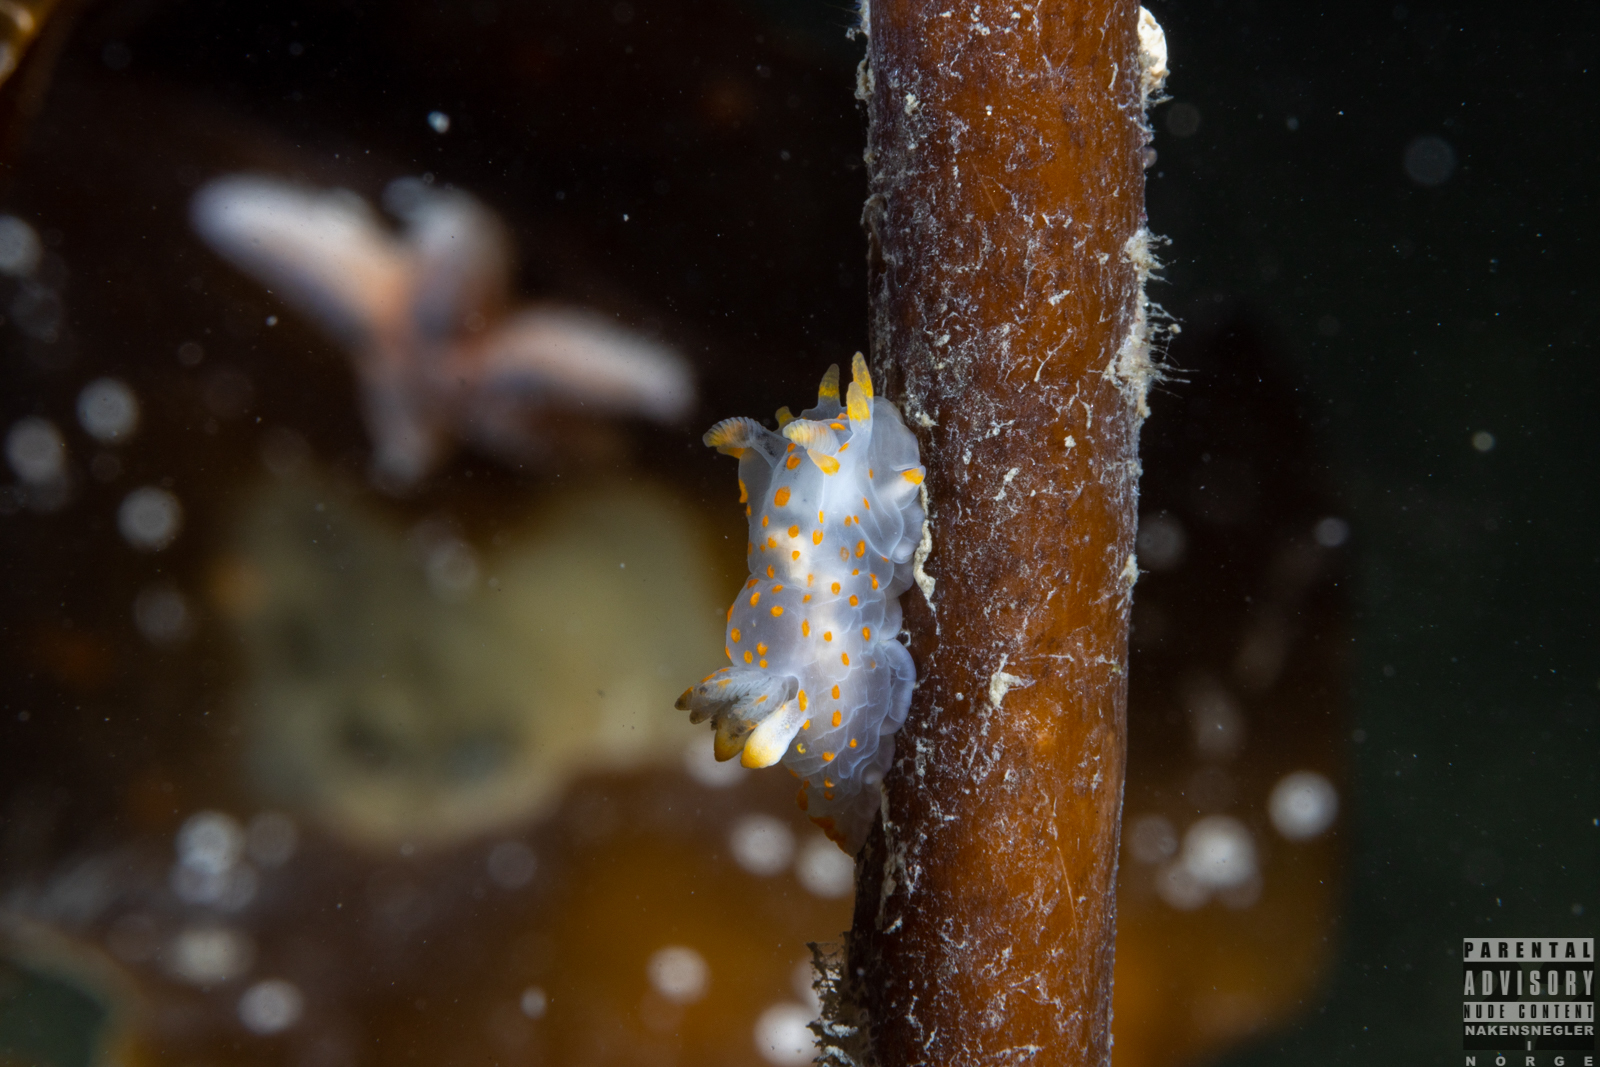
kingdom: Animalia
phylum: Mollusca
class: Gastropoda
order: Nudibranchia
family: Polyceridae
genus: Polycera
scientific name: Polycera quadrilineata
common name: Four-striped polycera
